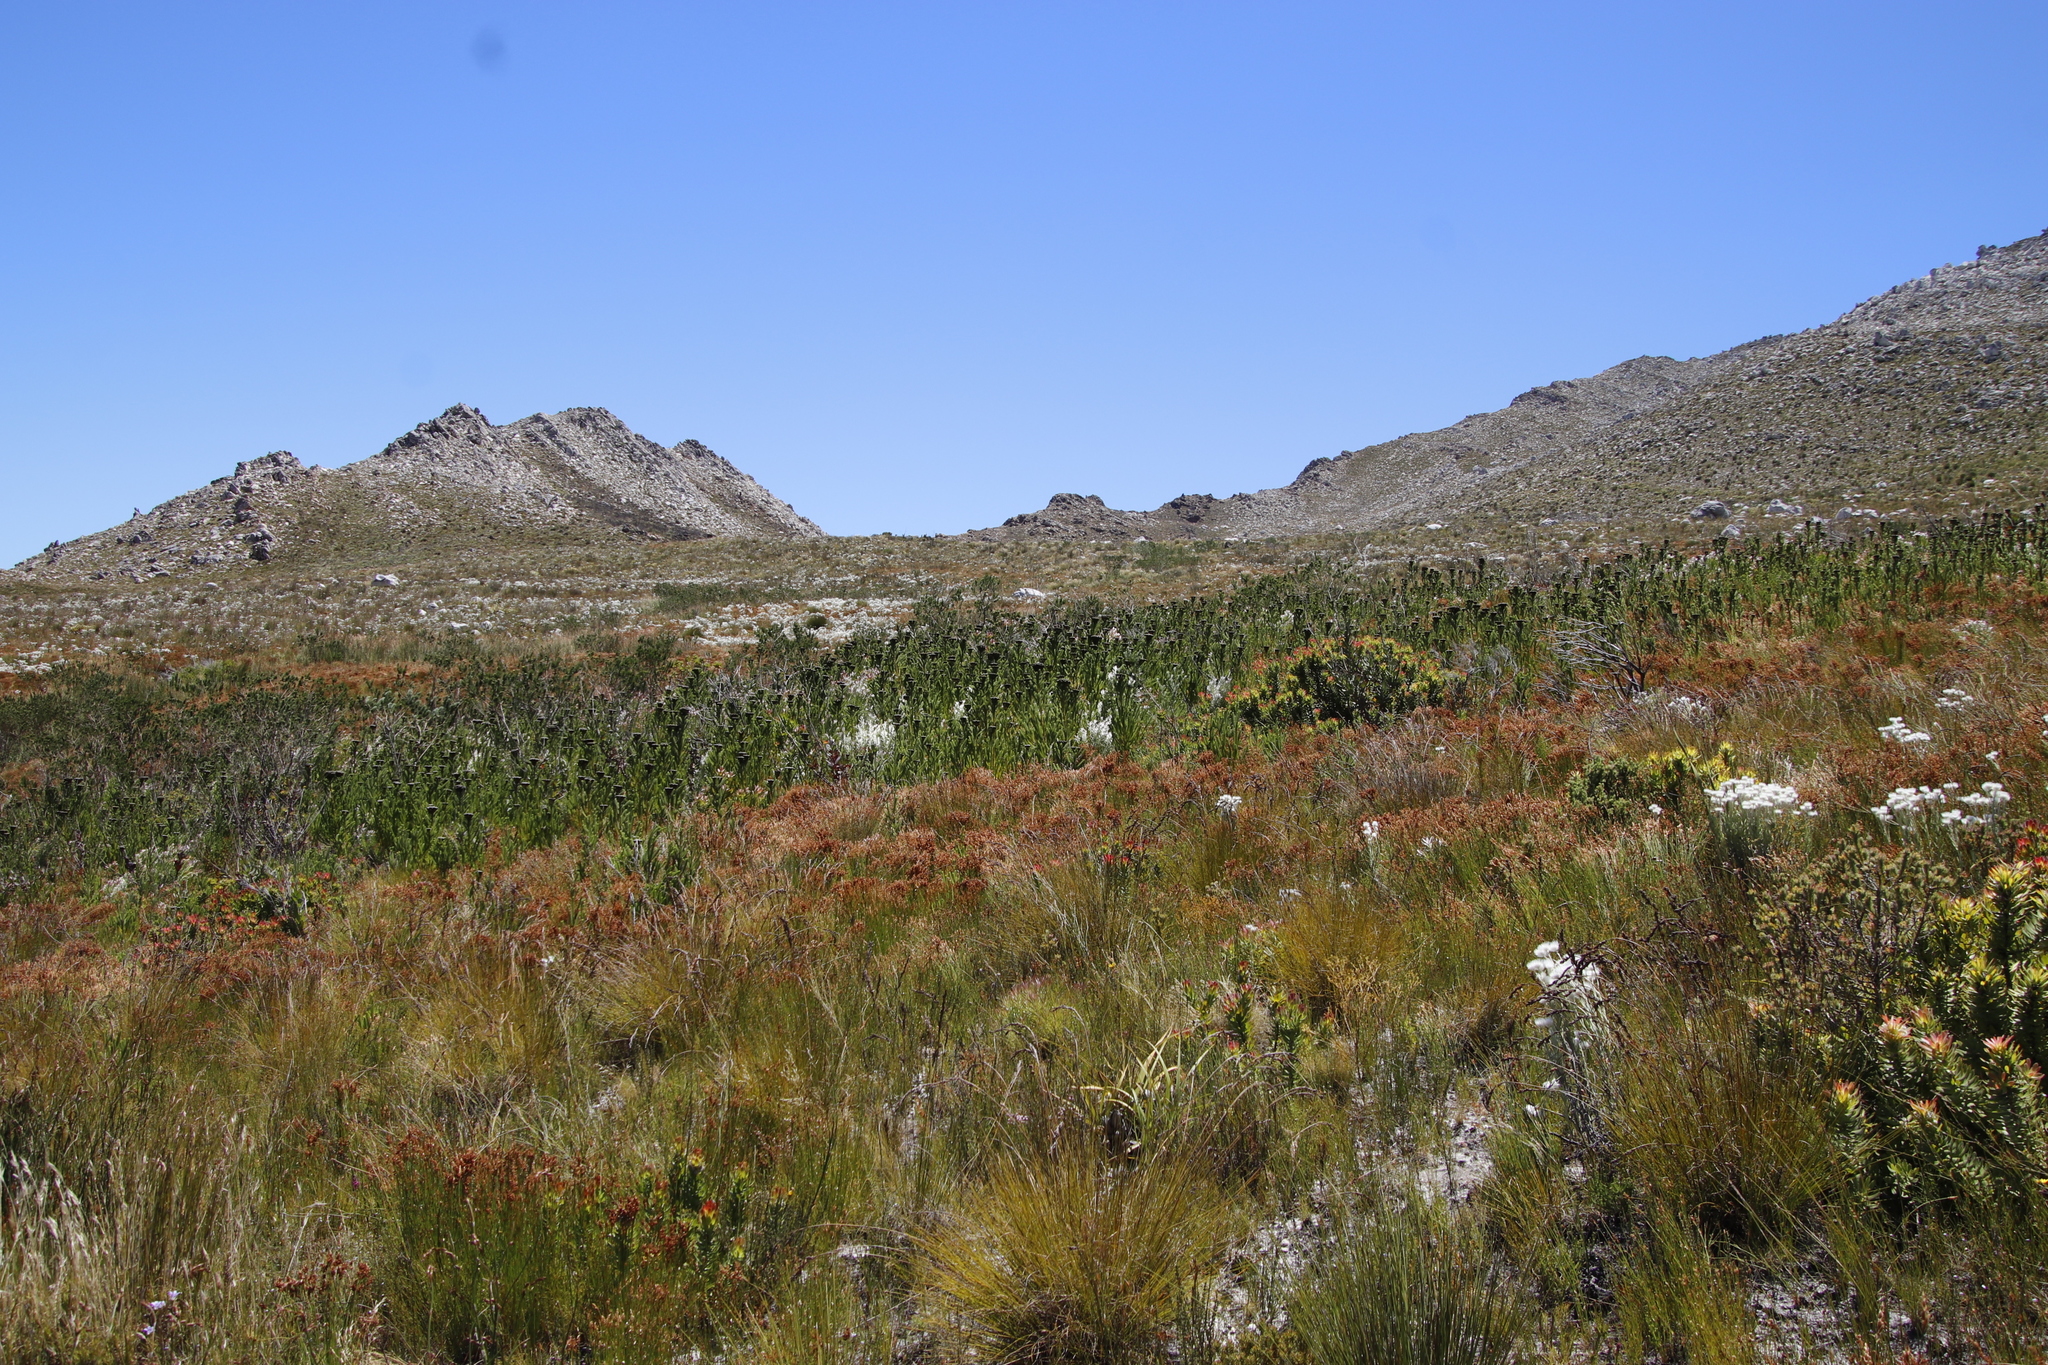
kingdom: Plantae
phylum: Tracheophyta
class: Magnoliopsida
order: Bruniales
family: Bruniaceae
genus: Berzelia
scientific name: Berzelia albiflora
